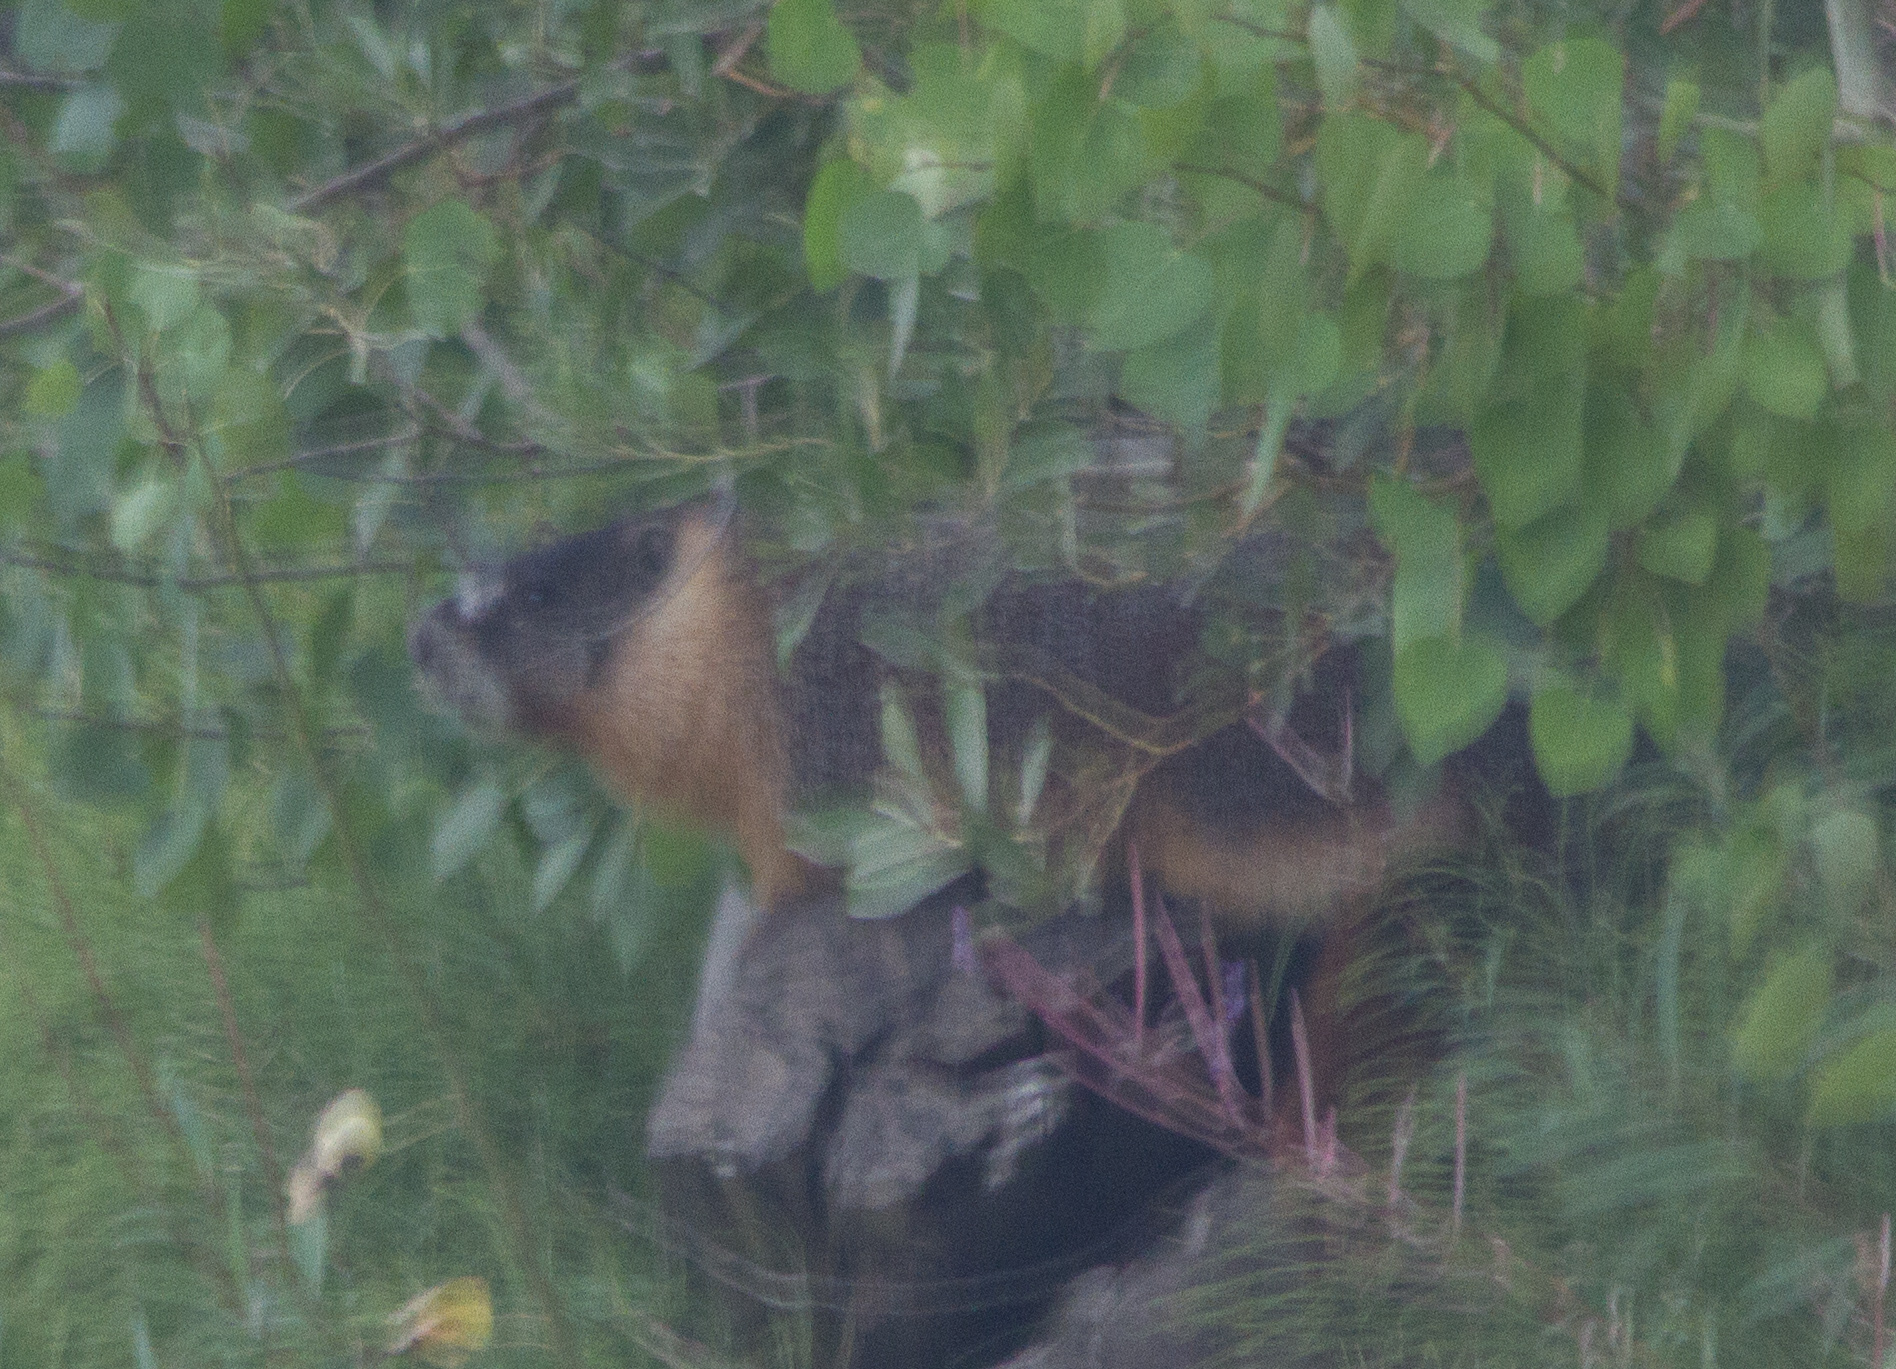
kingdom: Animalia
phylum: Chordata
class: Mammalia
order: Rodentia
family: Sciuridae
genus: Marmota
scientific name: Marmota flaviventris
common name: Yellow-bellied marmot
